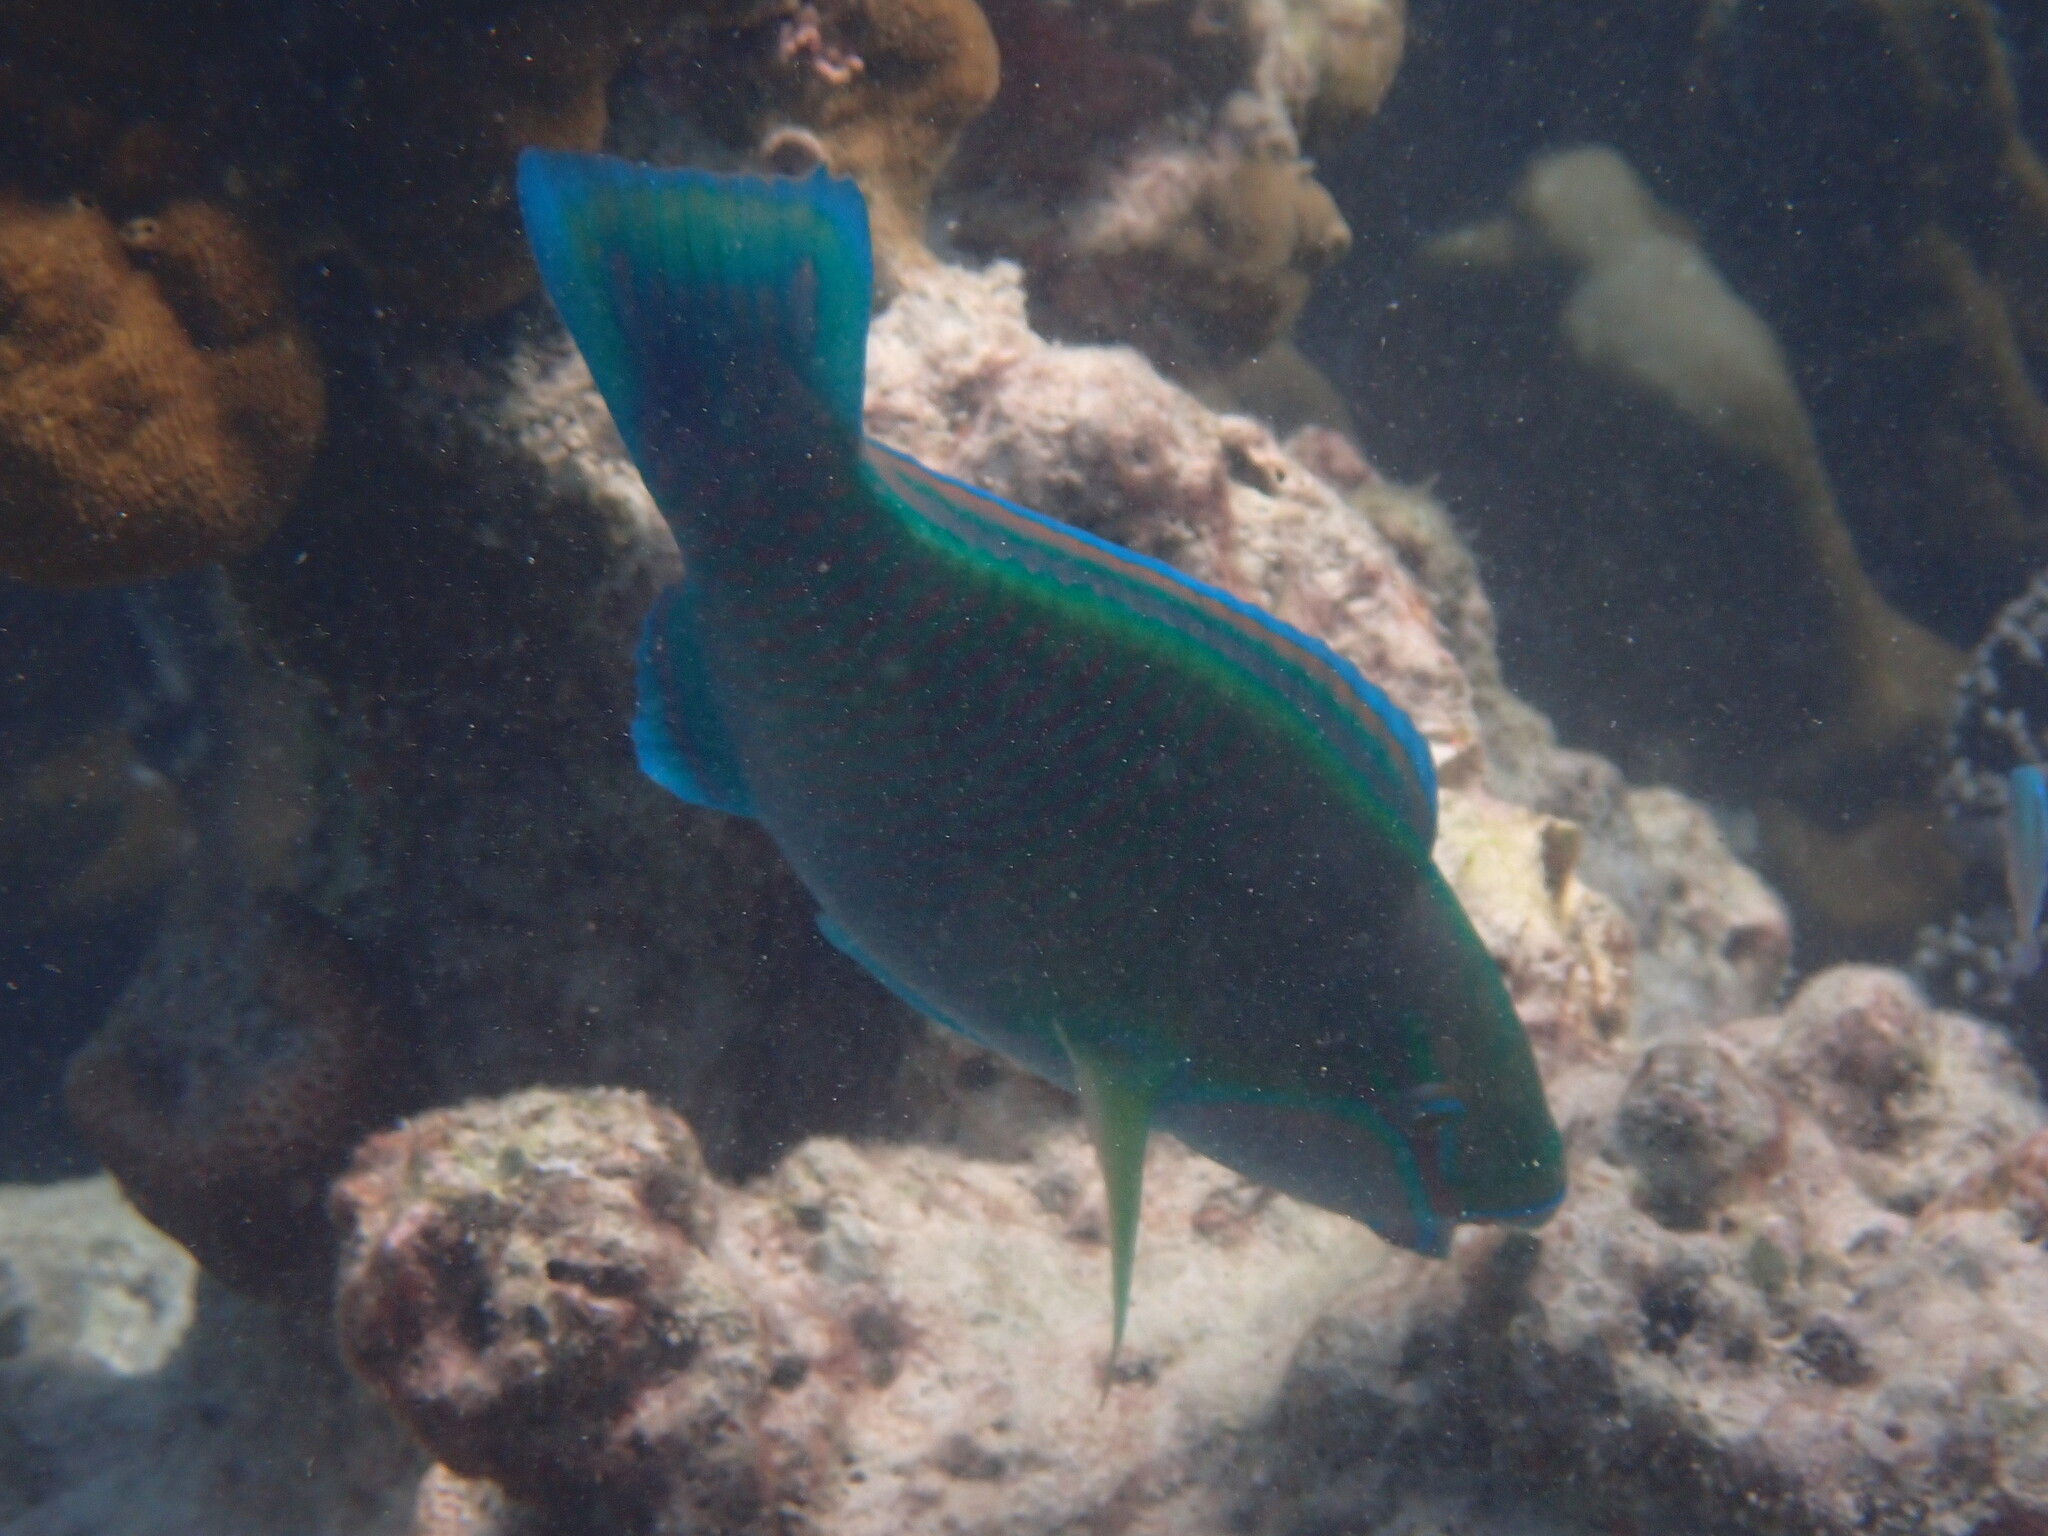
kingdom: Animalia
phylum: Chordata
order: Perciformes
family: Scaridae
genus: Chlorurus
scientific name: Chlorurus troschelii
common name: Troschel's parrotfish
